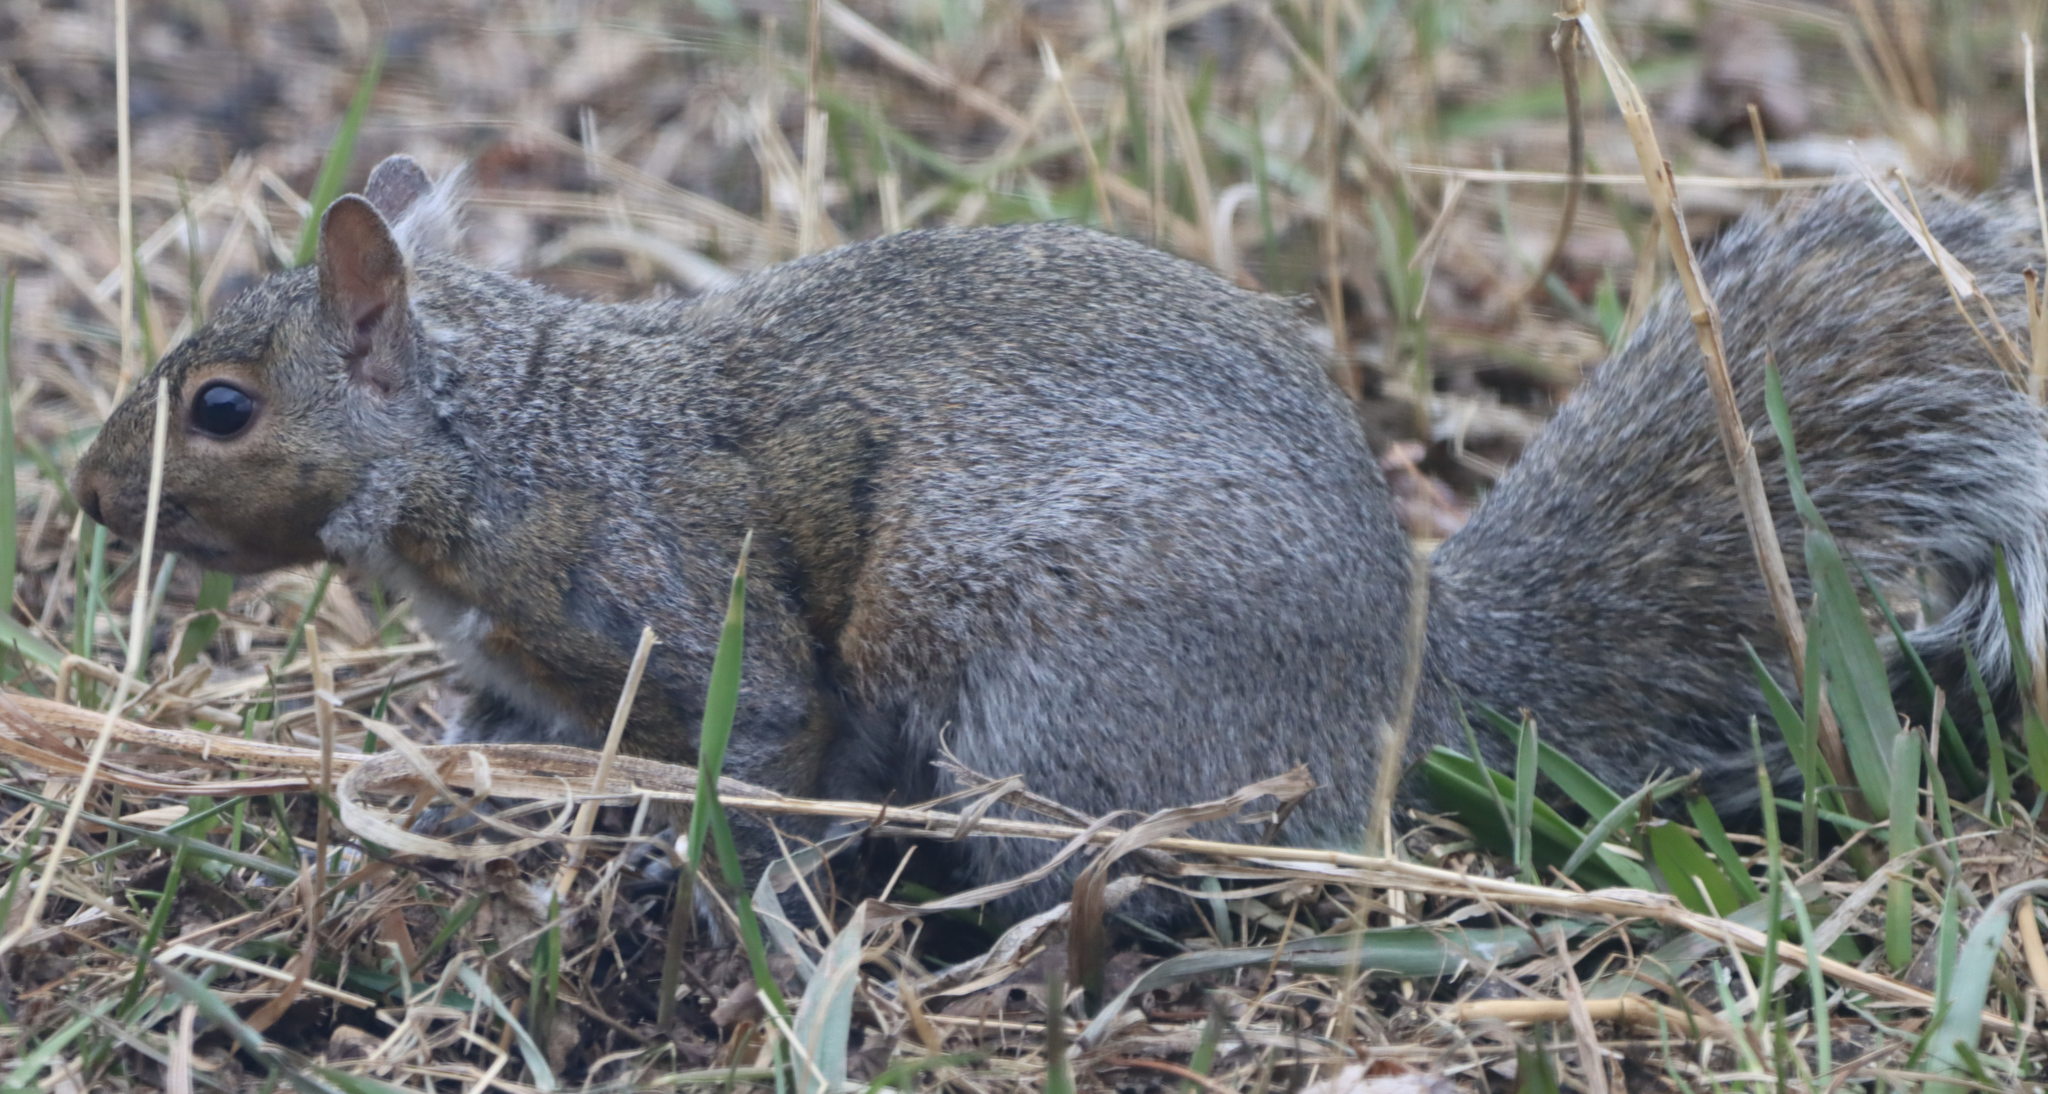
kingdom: Animalia
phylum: Chordata
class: Mammalia
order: Rodentia
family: Sciuridae
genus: Sciurus
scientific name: Sciurus carolinensis
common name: Eastern gray squirrel
